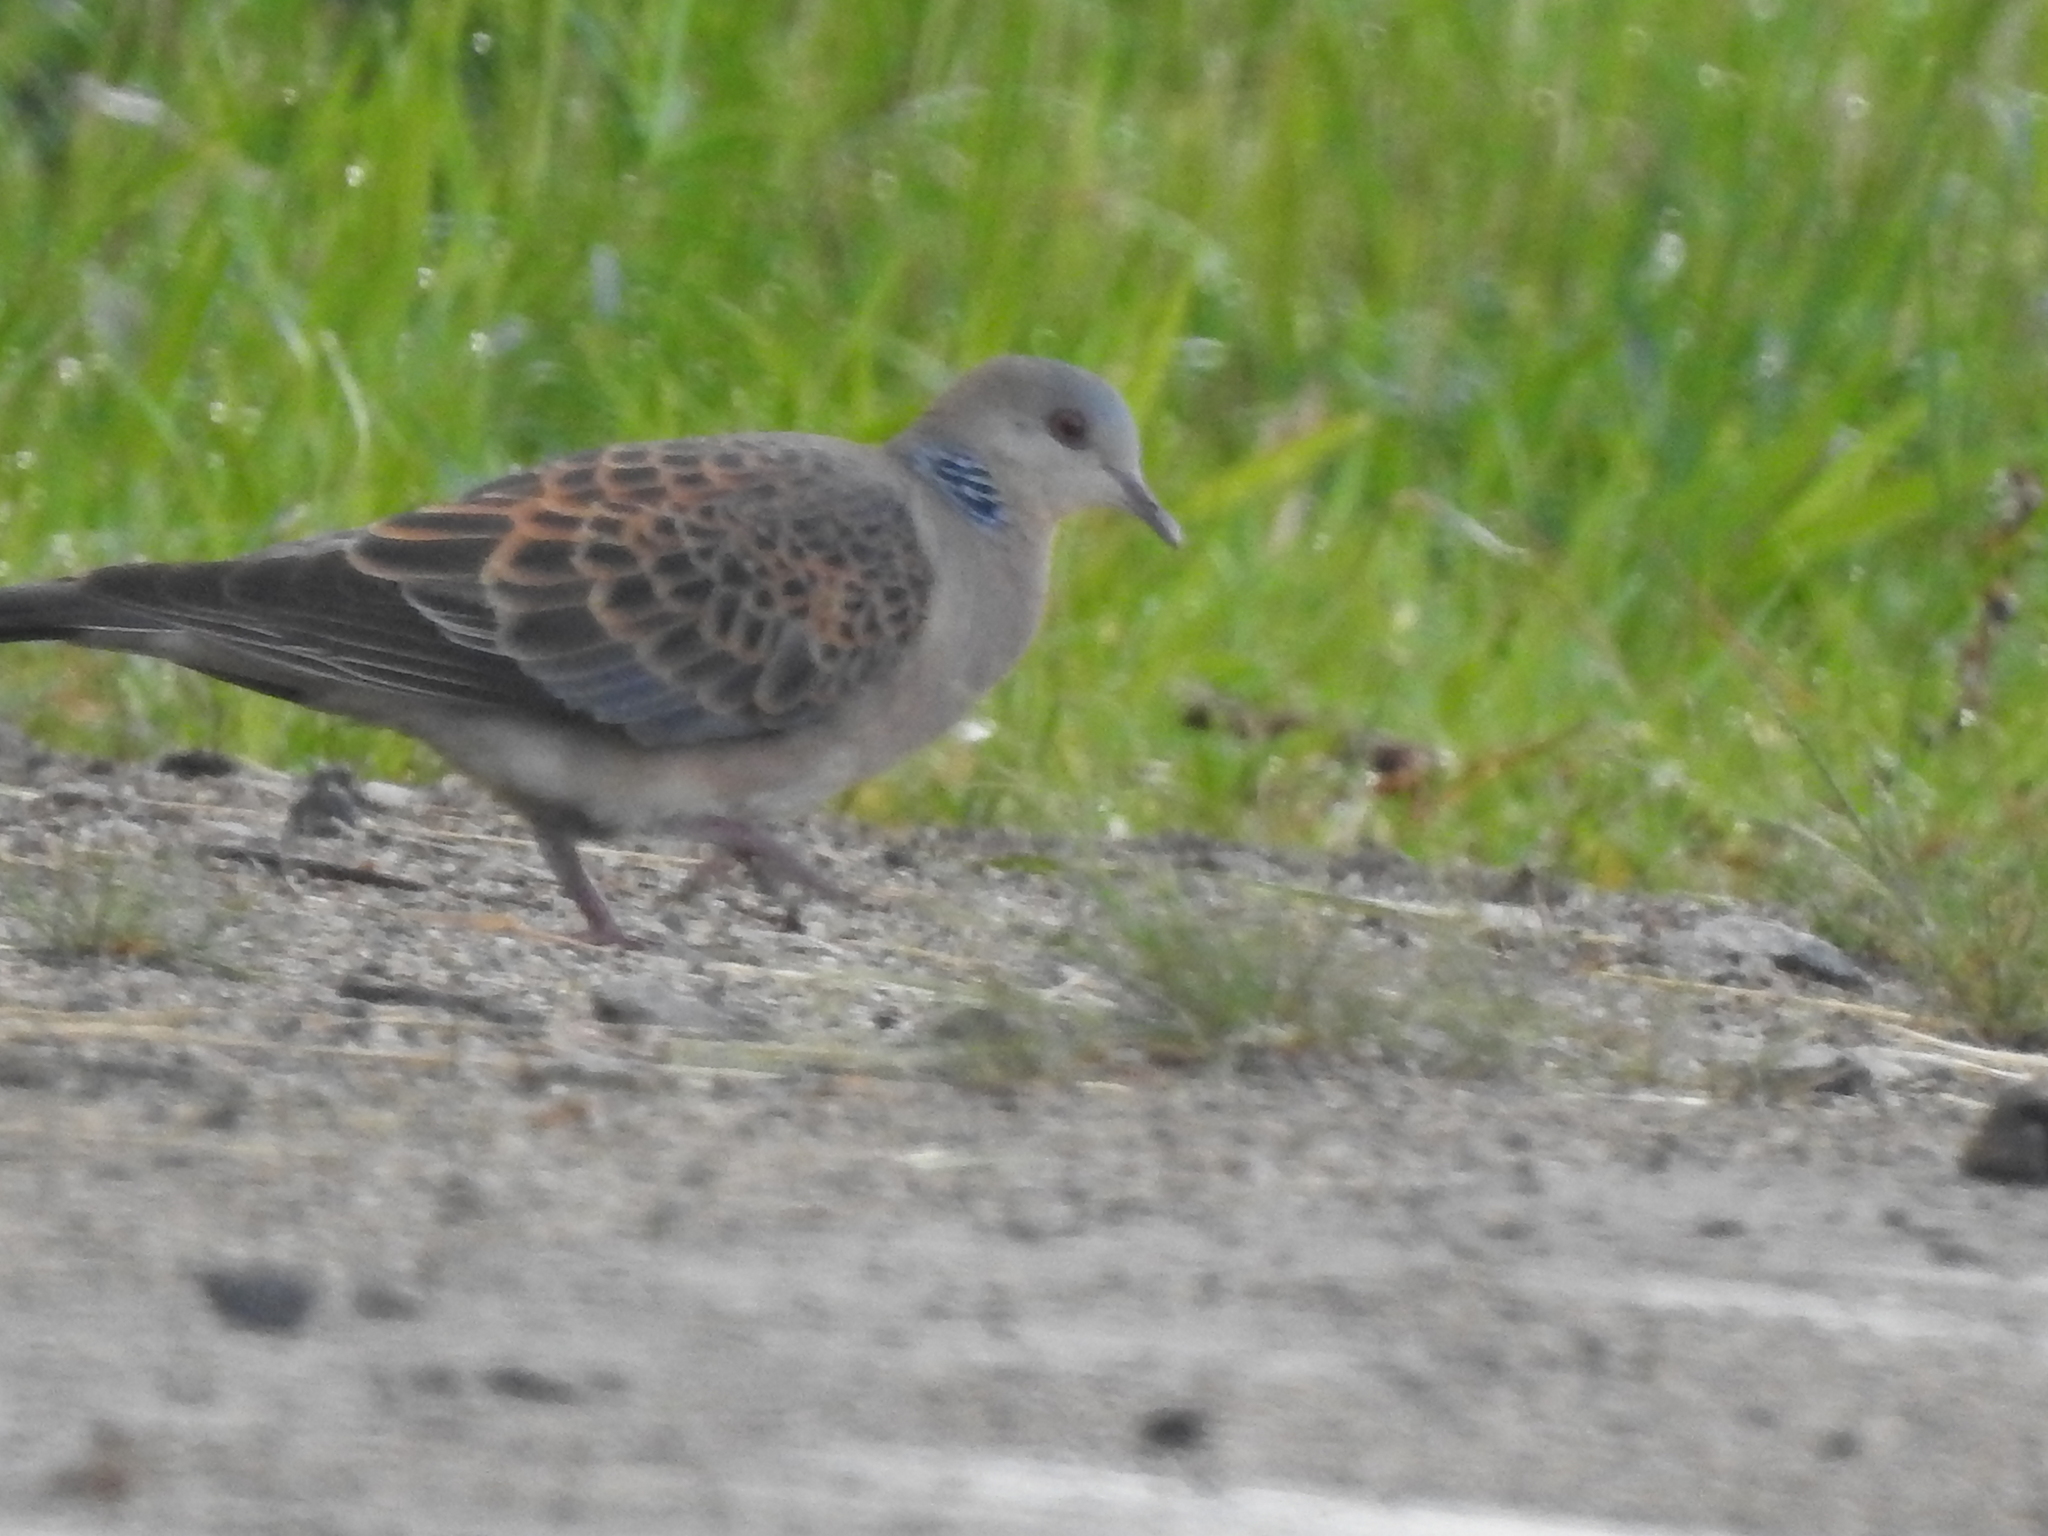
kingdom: Animalia
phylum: Chordata
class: Aves
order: Columbiformes
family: Columbidae
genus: Streptopelia
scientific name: Streptopelia orientalis
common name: Oriental turtle dove
